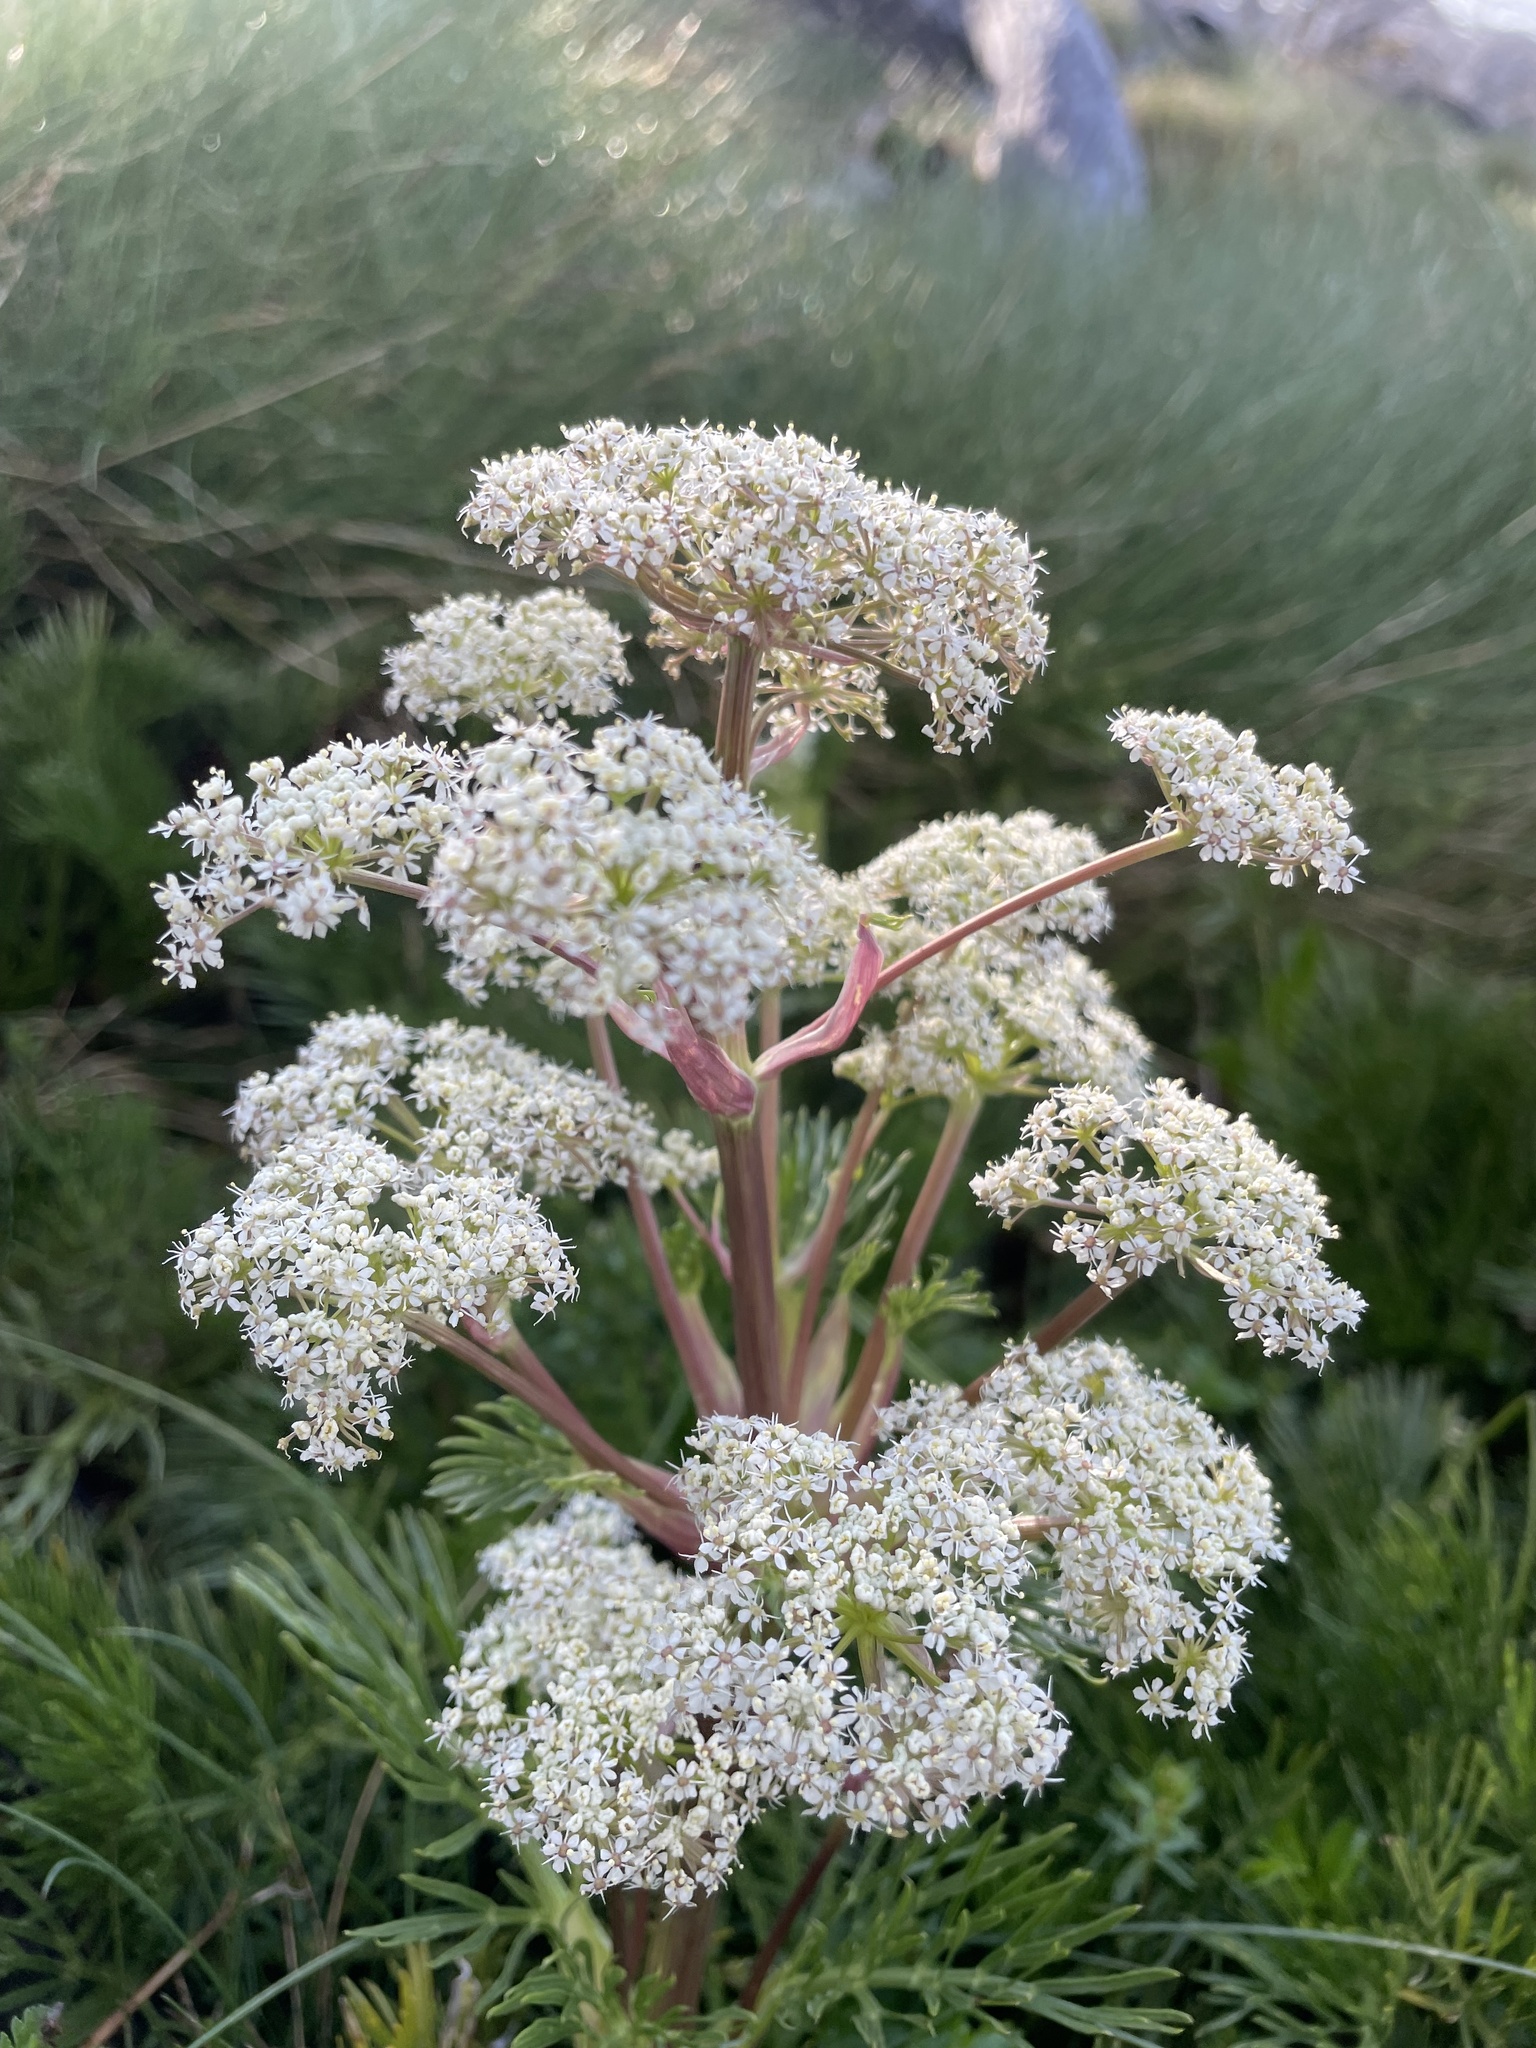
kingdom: Plantae
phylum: Tracheophyta
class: Magnoliopsida
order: Apiales
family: Apiaceae
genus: Aciphylla
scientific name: Aciphylla glacialis
